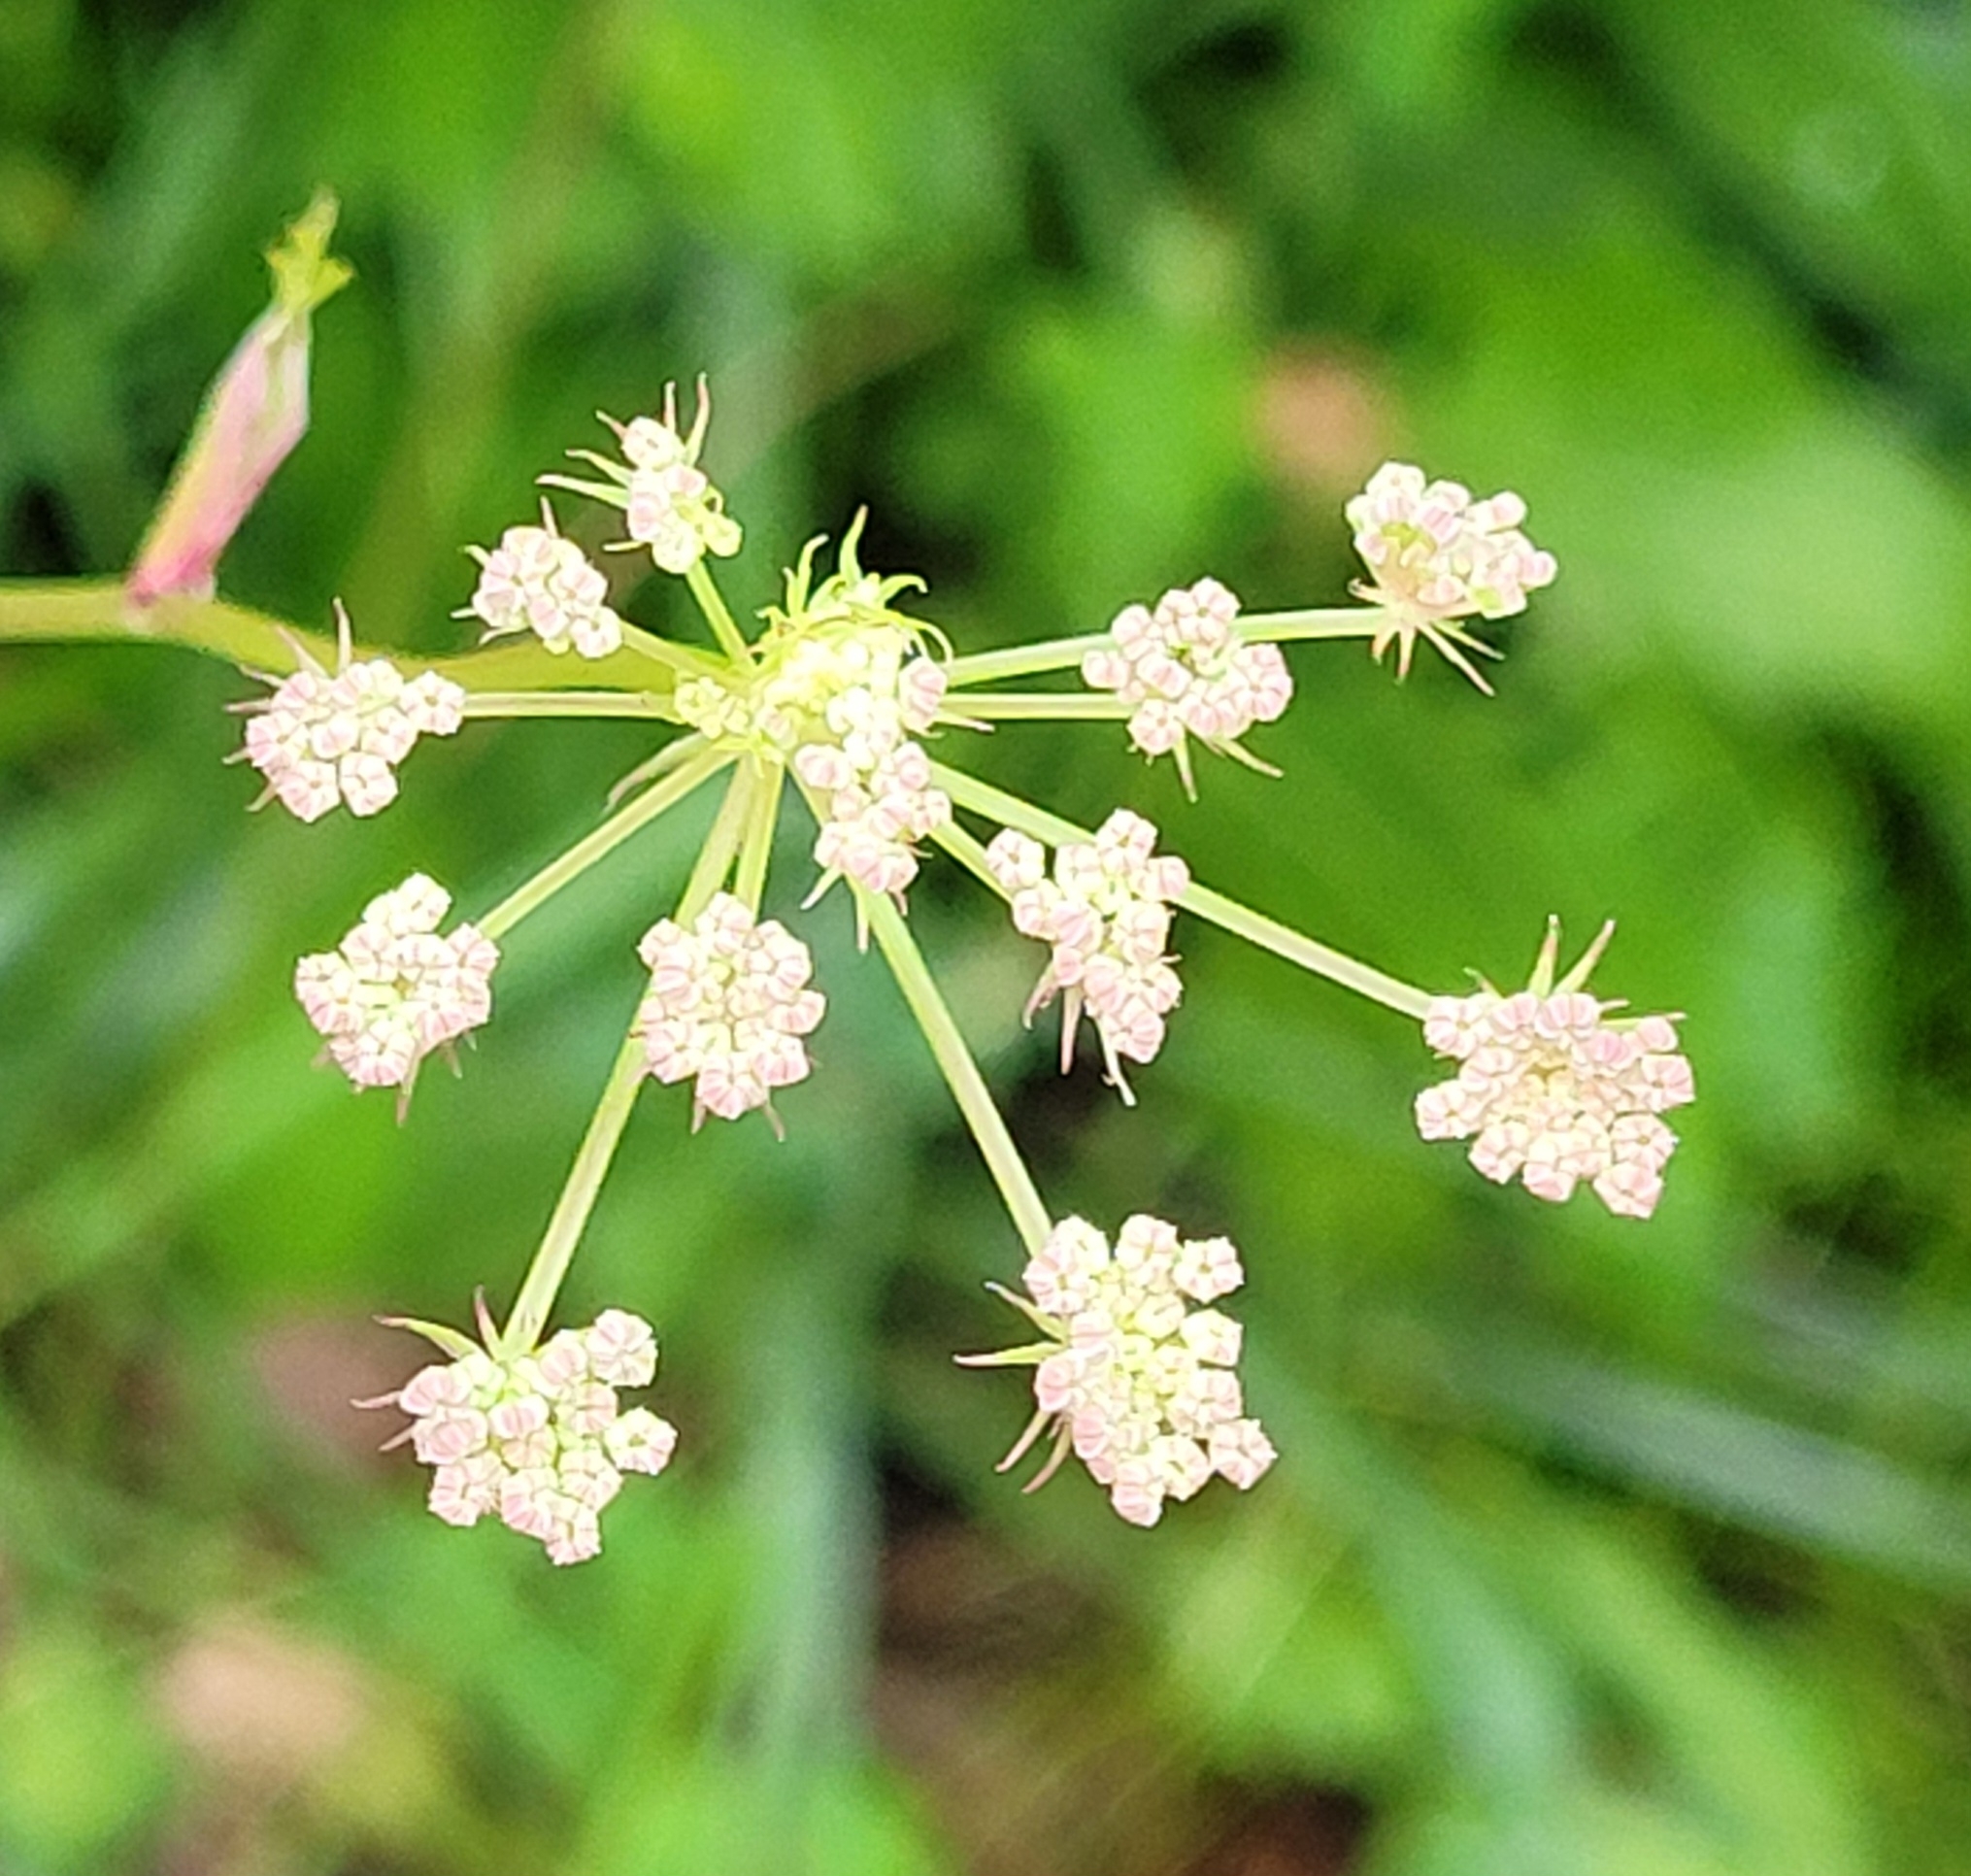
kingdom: Plantae
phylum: Tracheophyta
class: Magnoliopsida
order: Apiales
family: Apiaceae
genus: Pimpinella
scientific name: Pimpinella saxifraga
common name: Burnet-saxifrage
